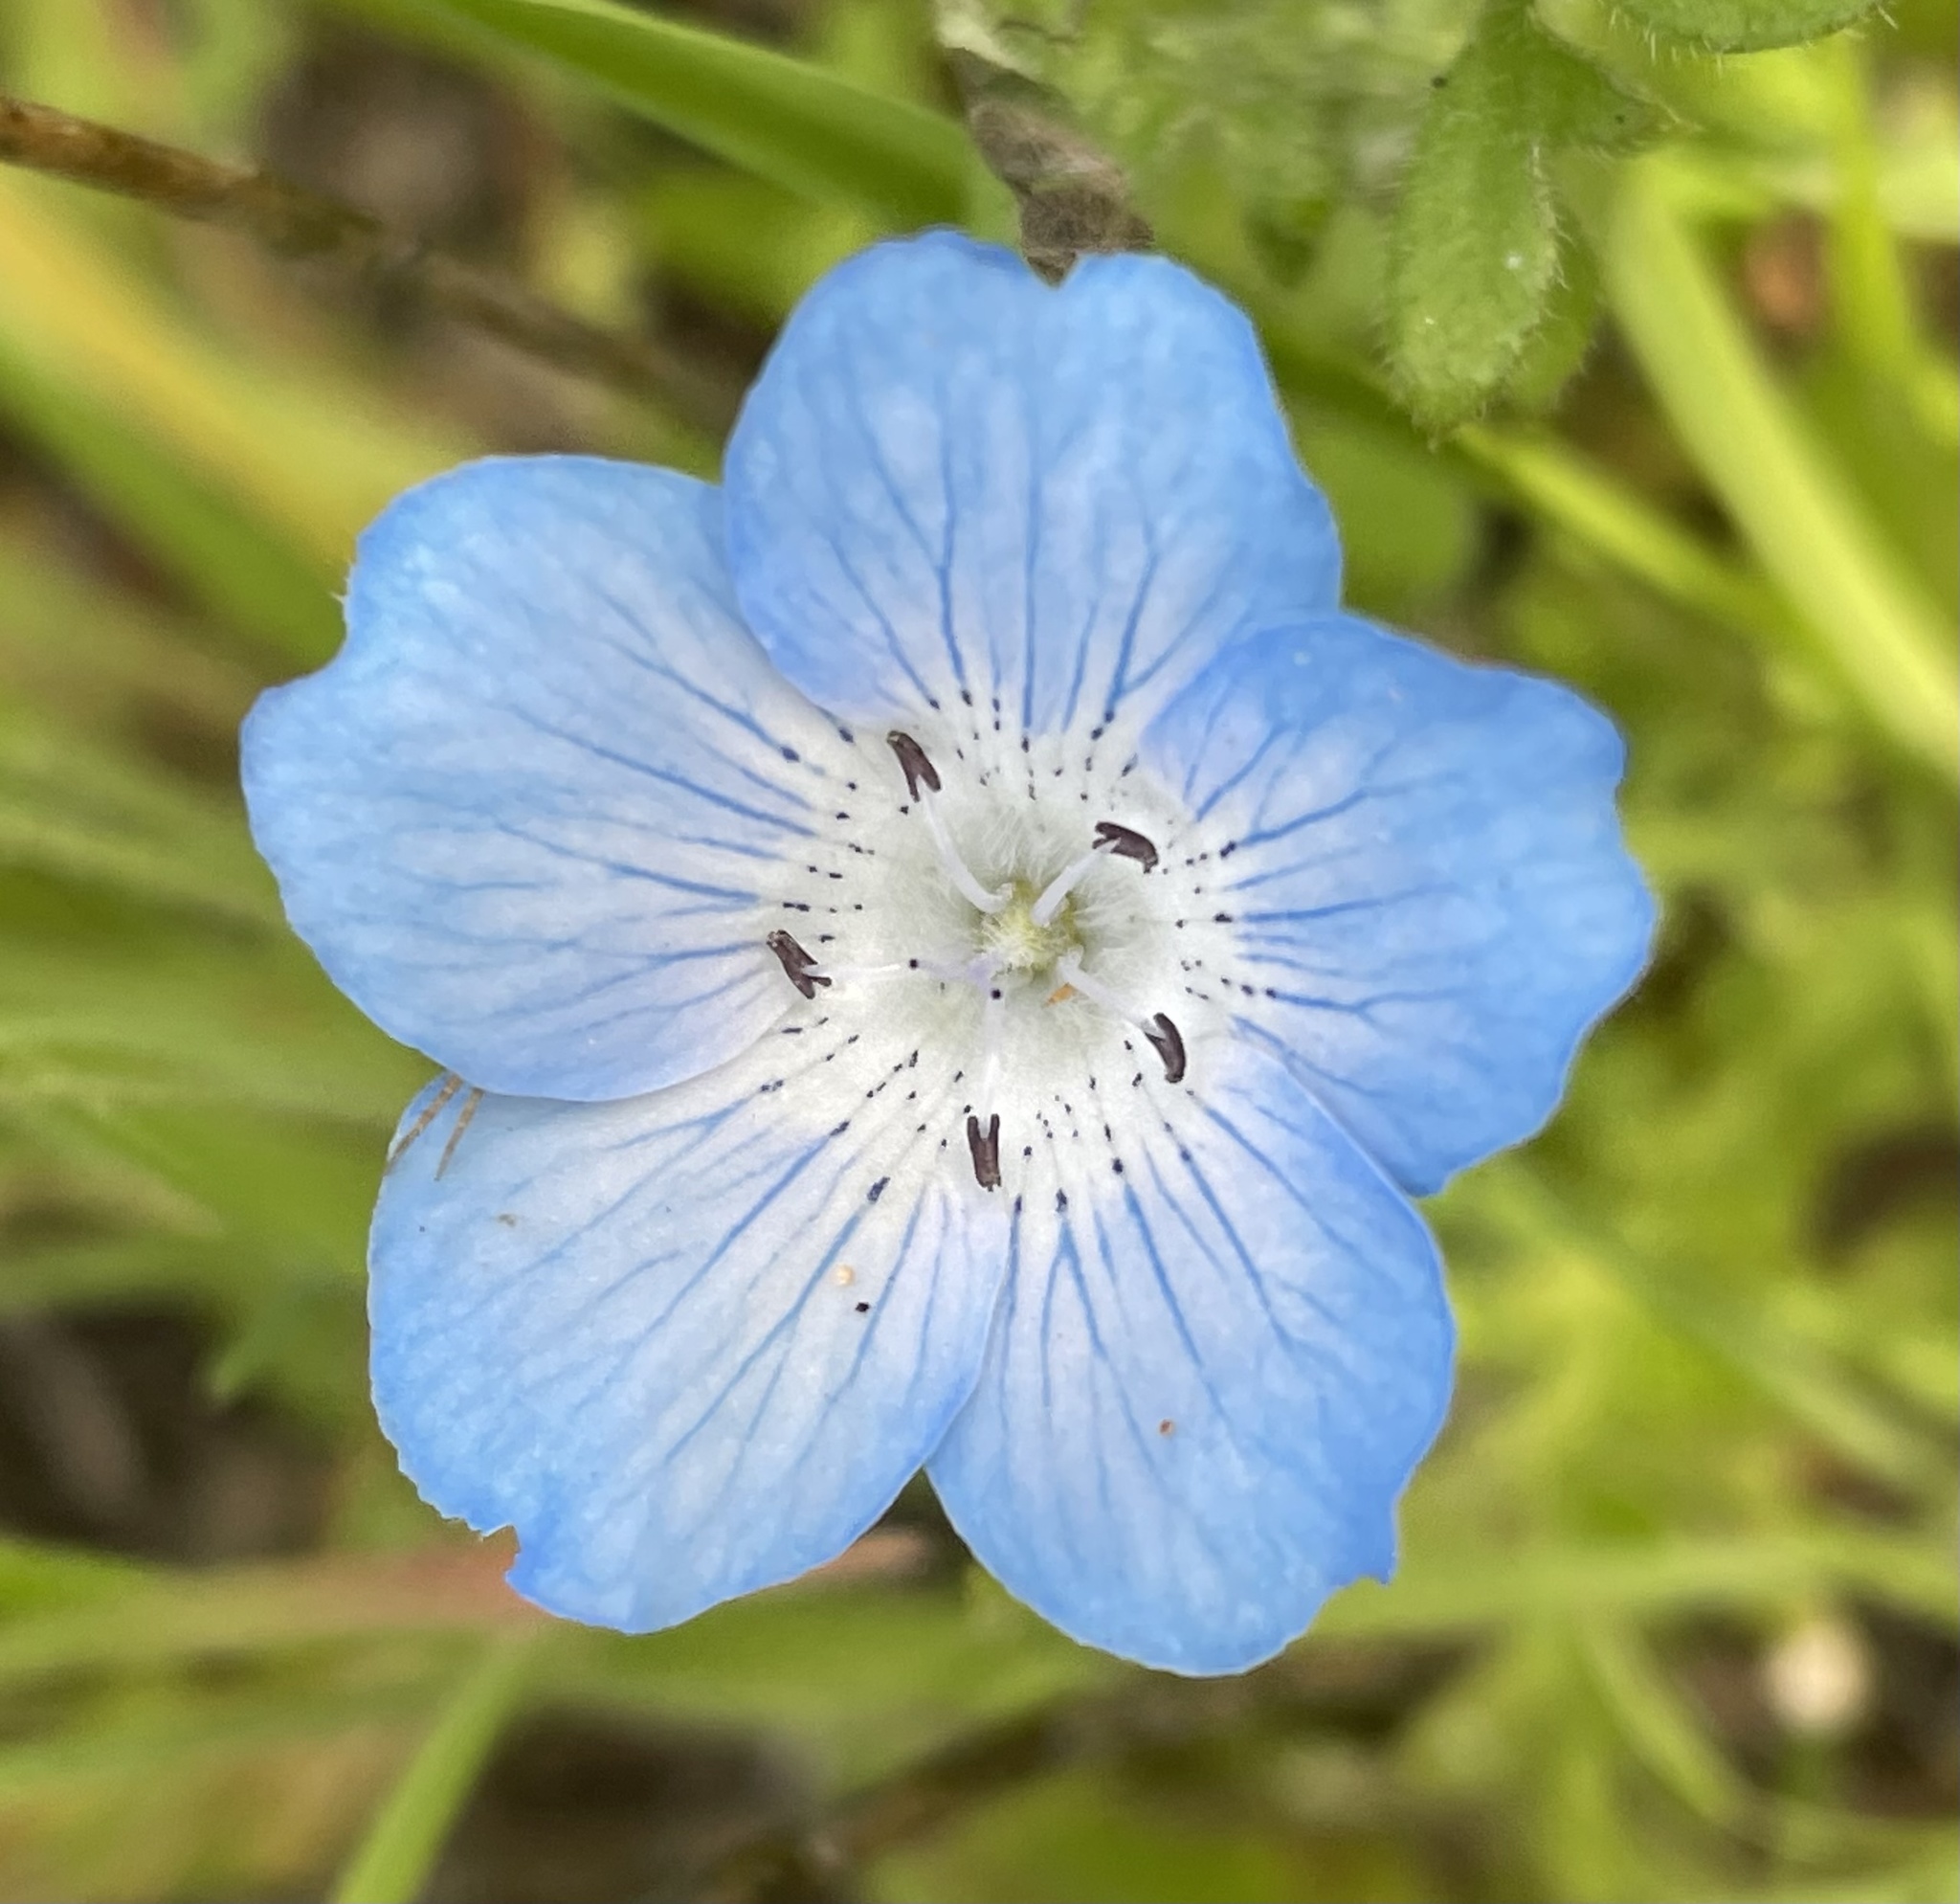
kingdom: Plantae
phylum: Tracheophyta
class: Magnoliopsida
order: Boraginales
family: Hydrophyllaceae
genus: Nemophila
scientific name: Nemophila menziesii
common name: Baby's-blue-eyes
